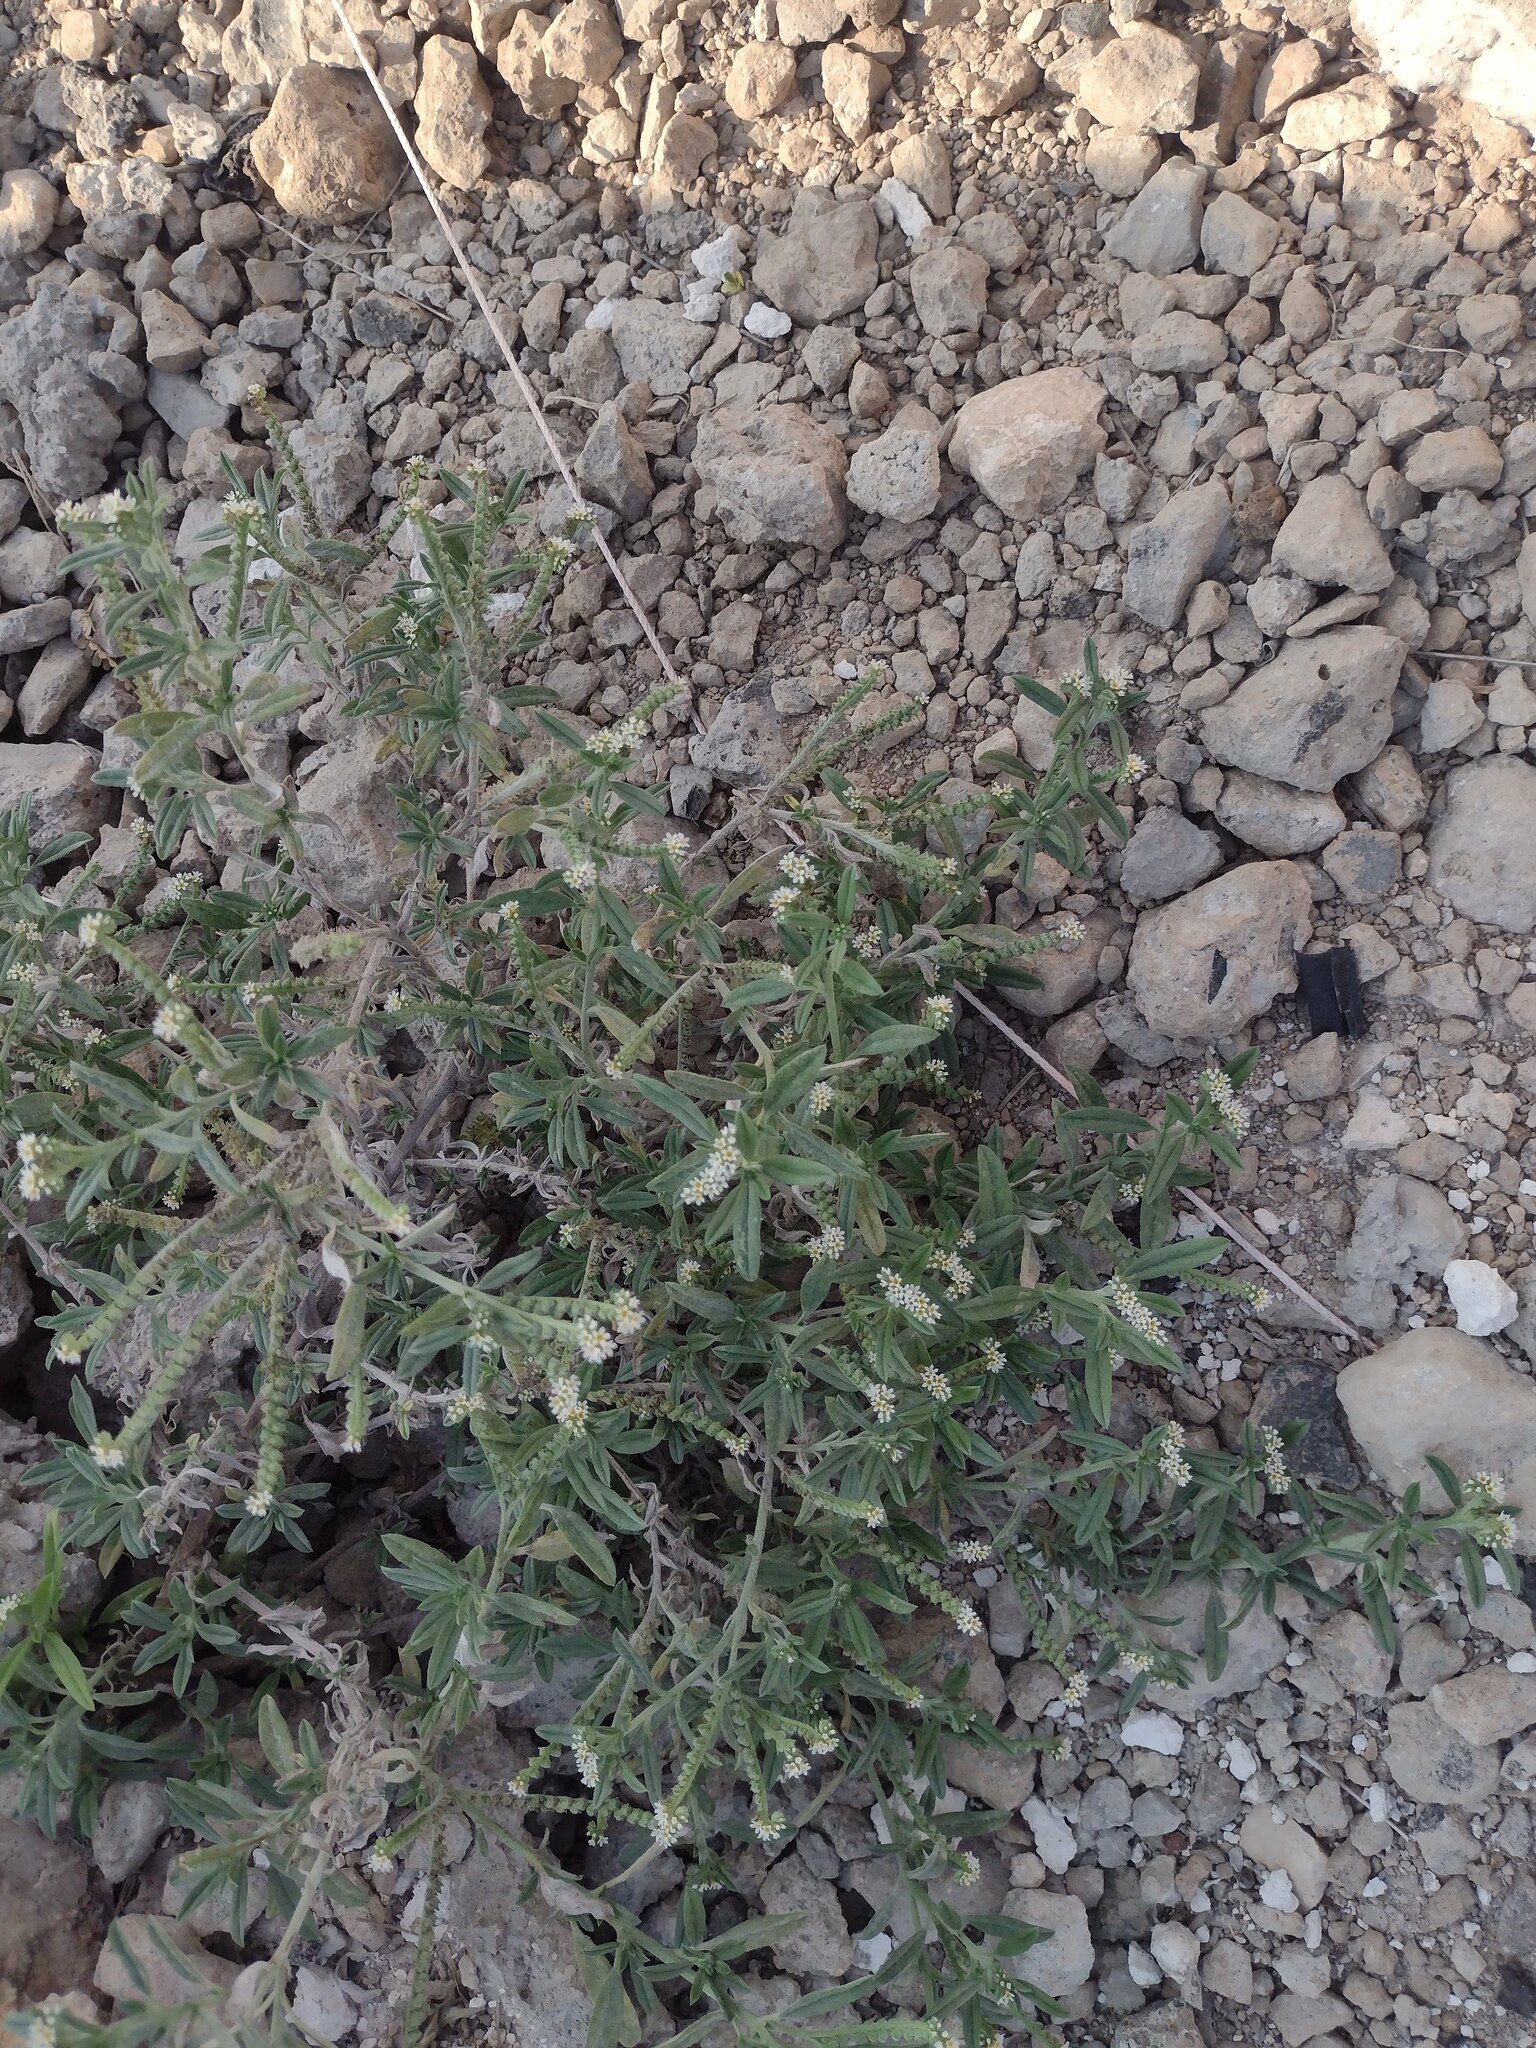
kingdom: Plantae
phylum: Tracheophyta
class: Magnoliopsida
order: Boraginales
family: Heliotropiaceae
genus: Euploca
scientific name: Euploca procumbens
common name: Fourspike heliotrope
